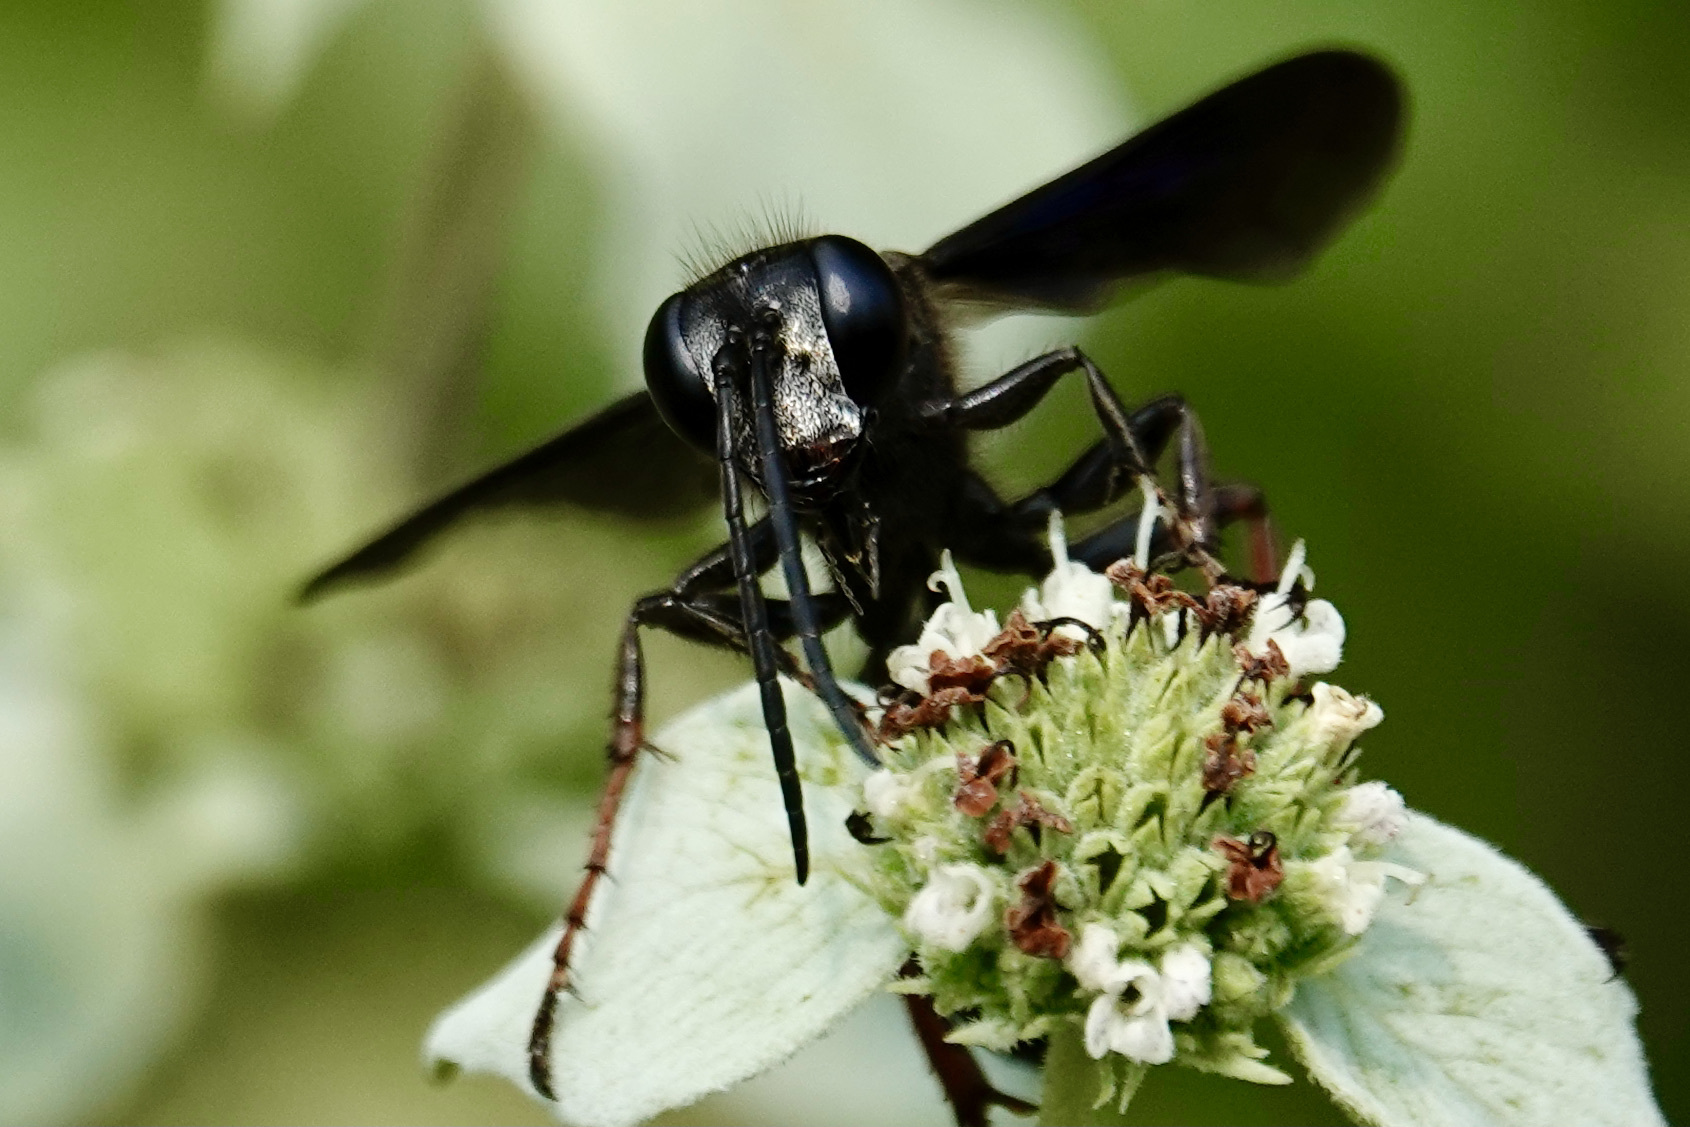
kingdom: Animalia
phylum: Arthropoda
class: Insecta
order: Hymenoptera
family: Sphecidae
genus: Isodontia
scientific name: Isodontia auripes
